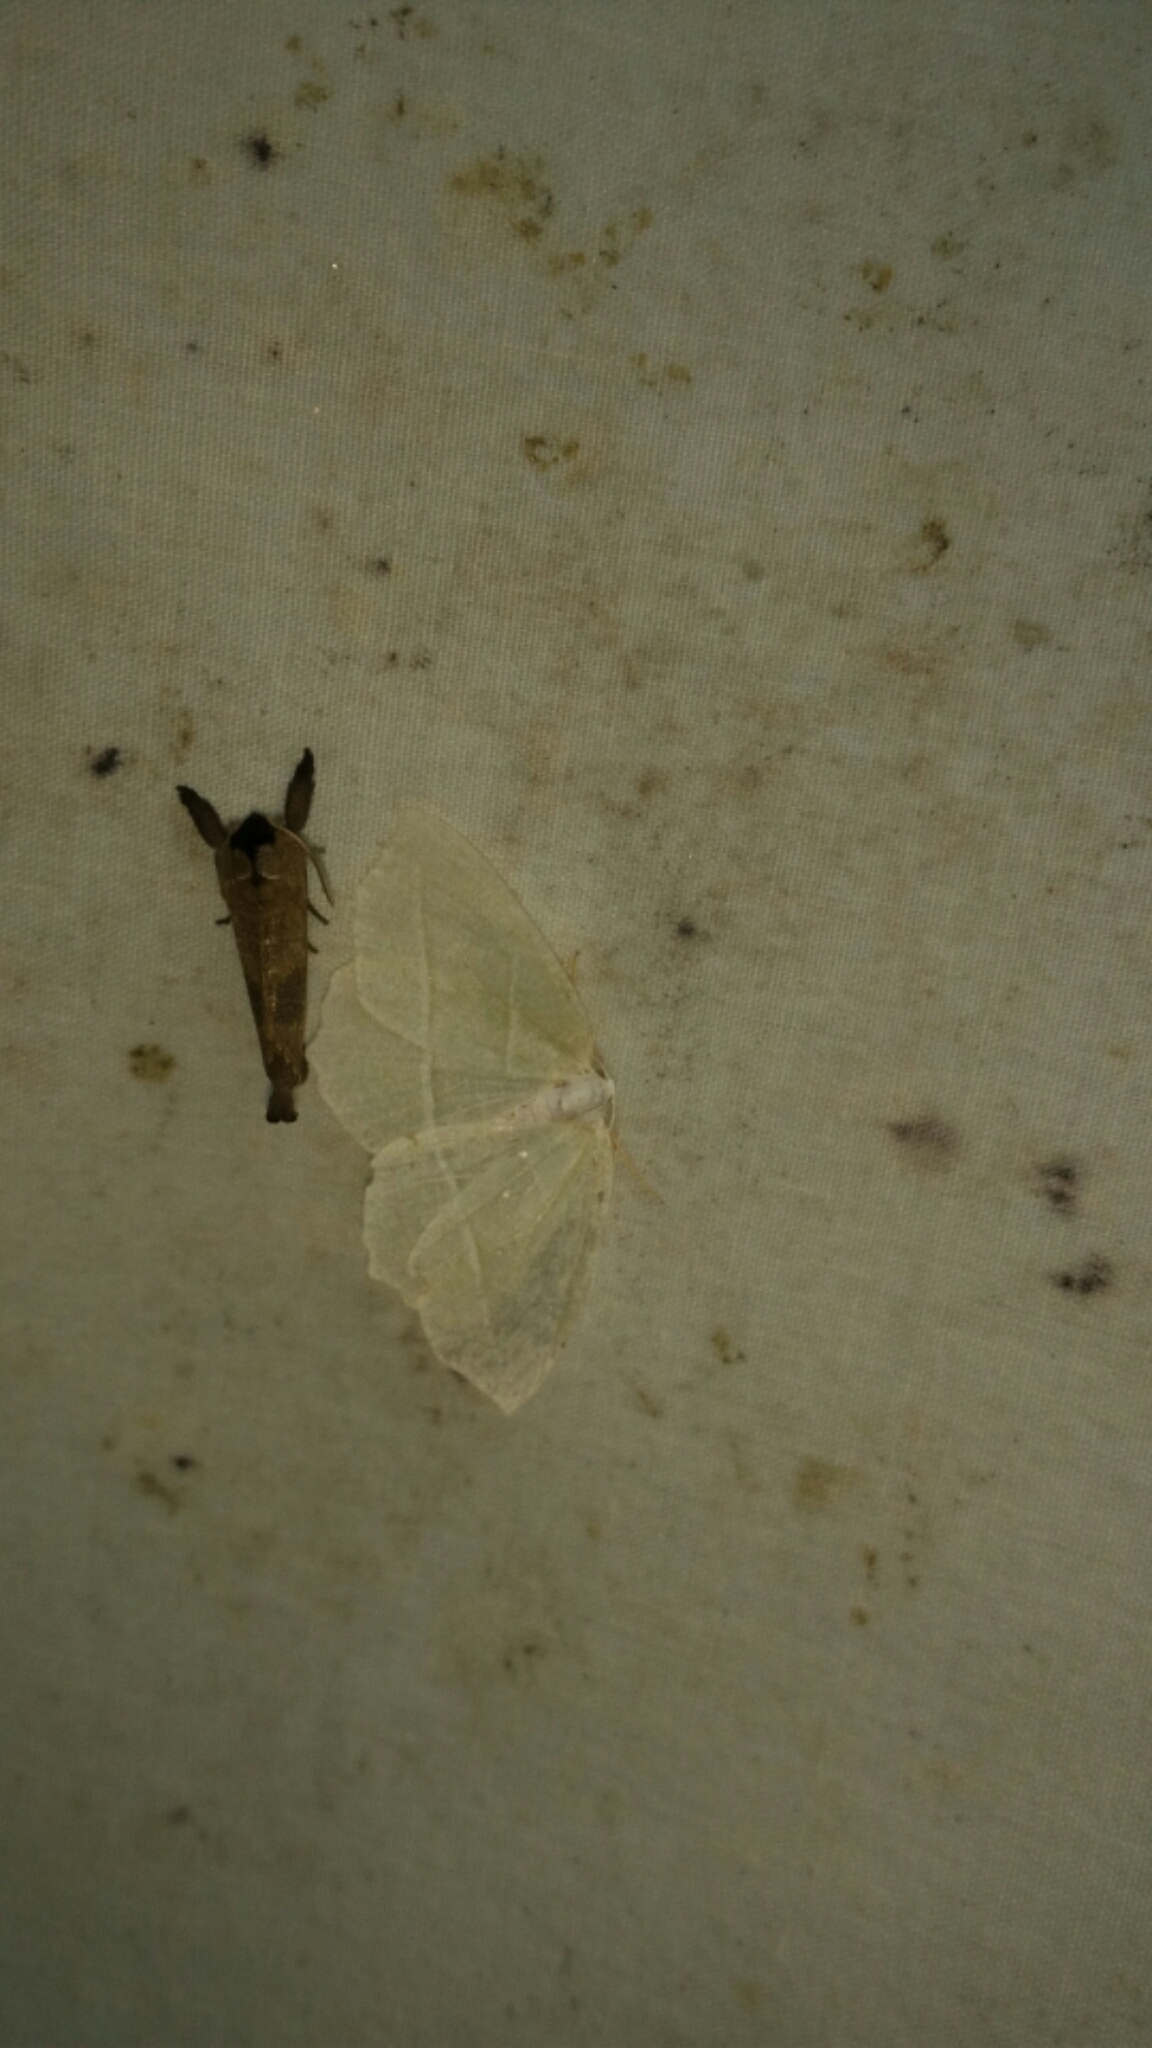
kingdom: Animalia
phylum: Arthropoda
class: Insecta
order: Lepidoptera
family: Geometridae
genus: Campaea
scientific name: Campaea perlata
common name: Fringed looper
